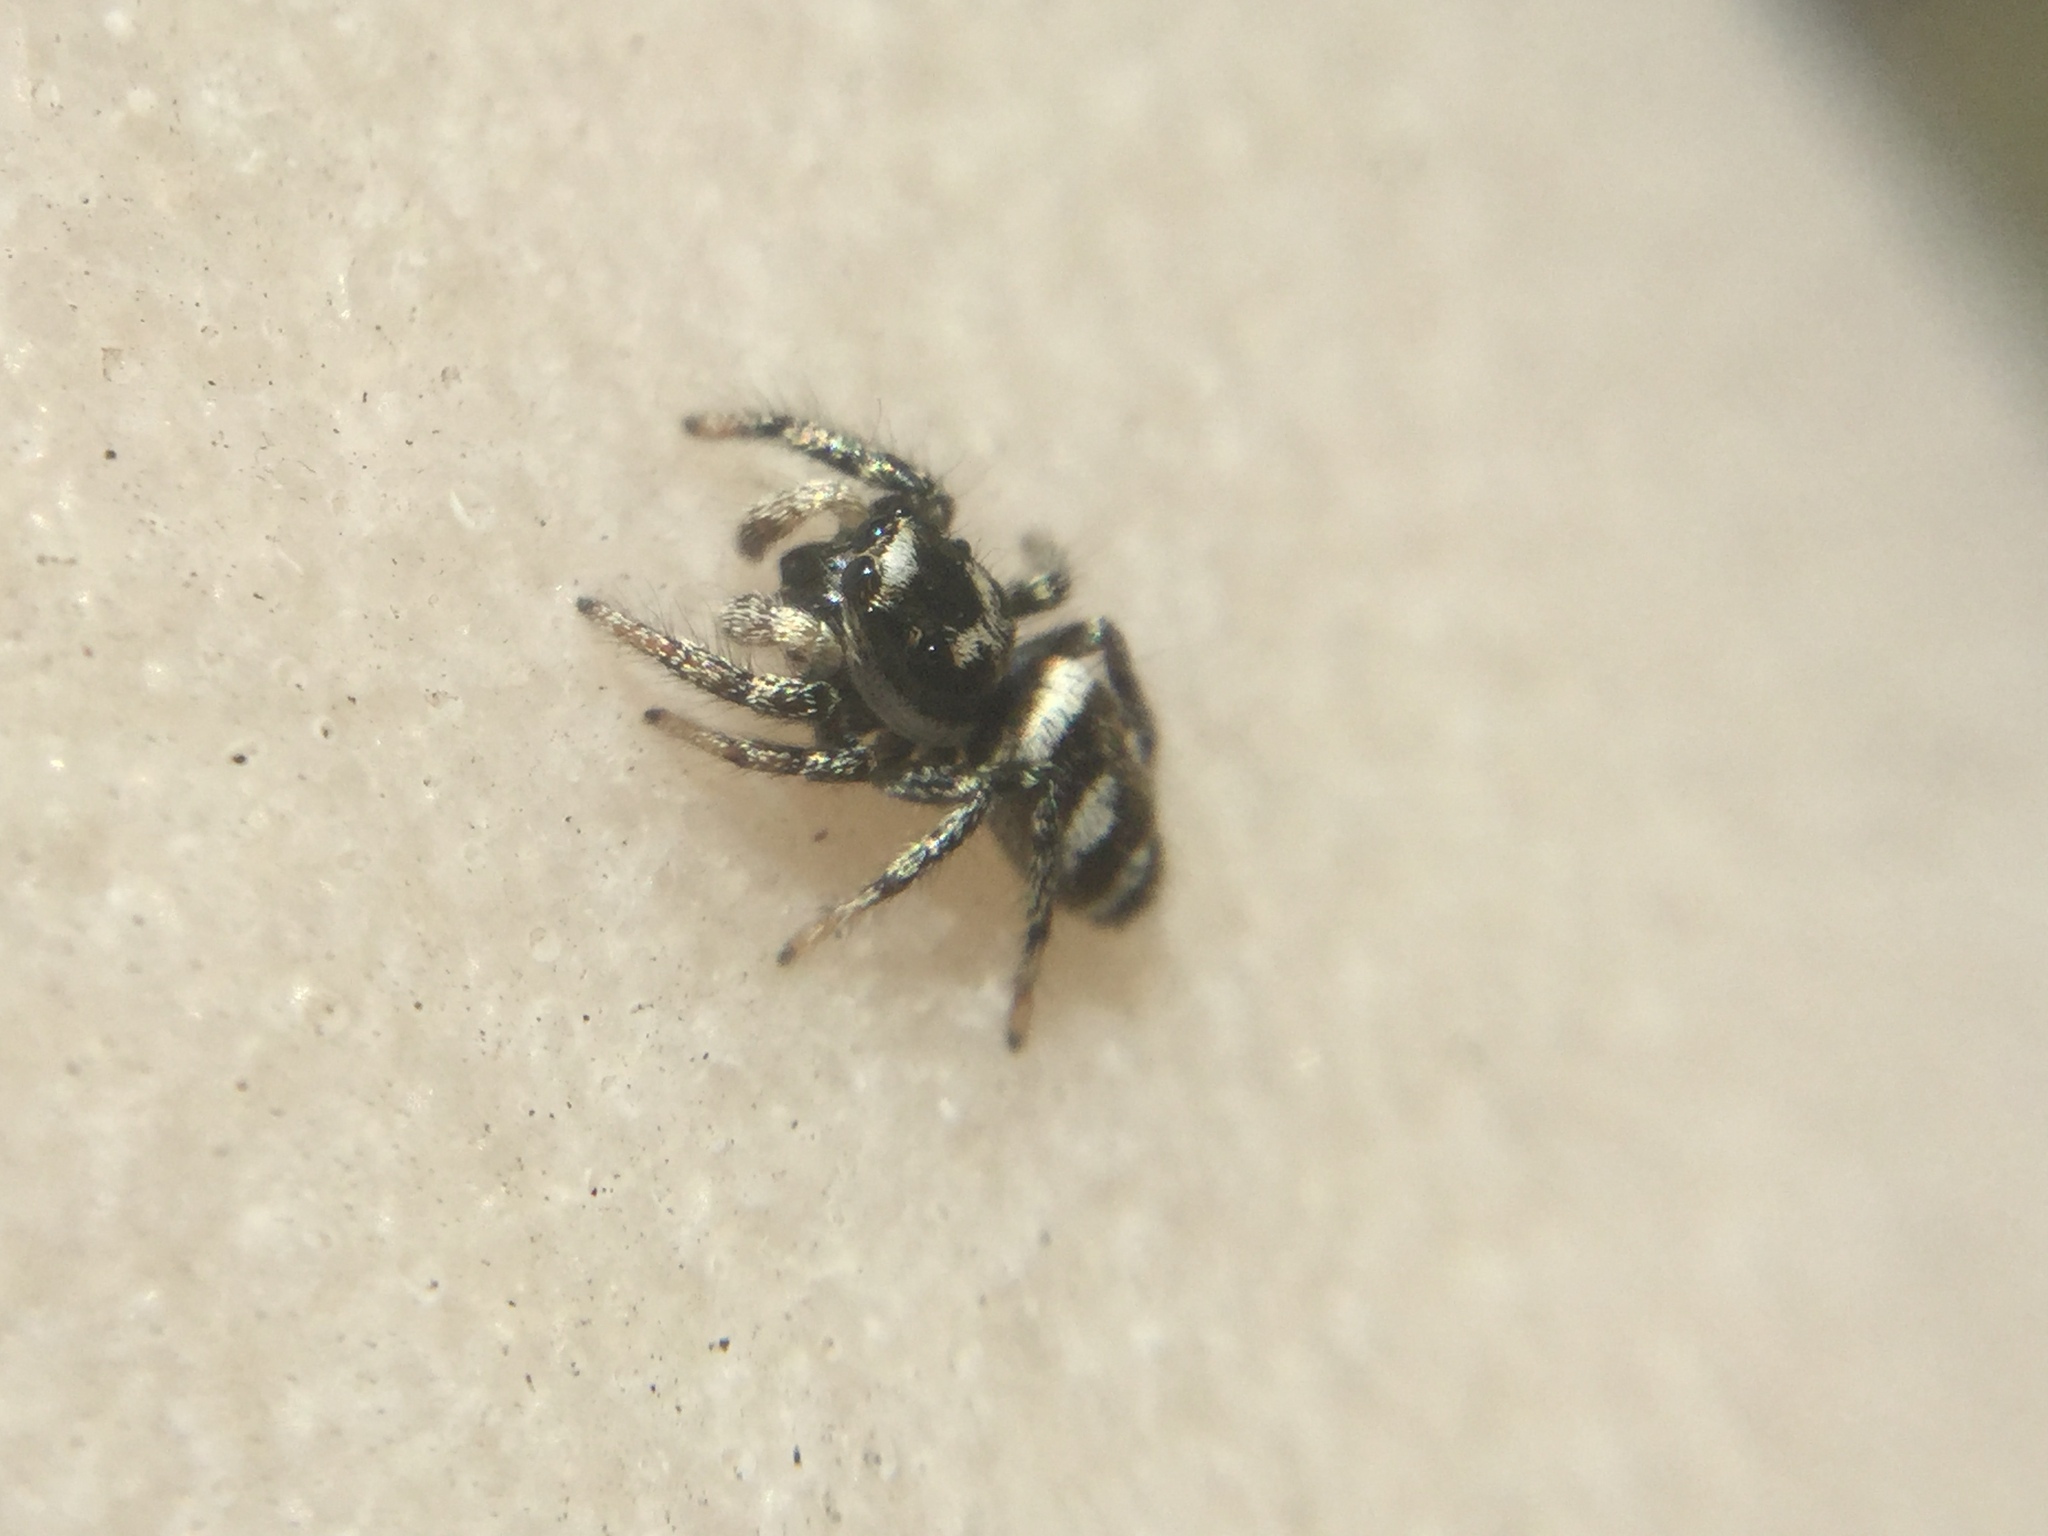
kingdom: Animalia
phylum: Arthropoda
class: Arachnida
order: Araneae
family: Salticidae
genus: Salticus
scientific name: Salticus scenicus
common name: Zebra jumper
